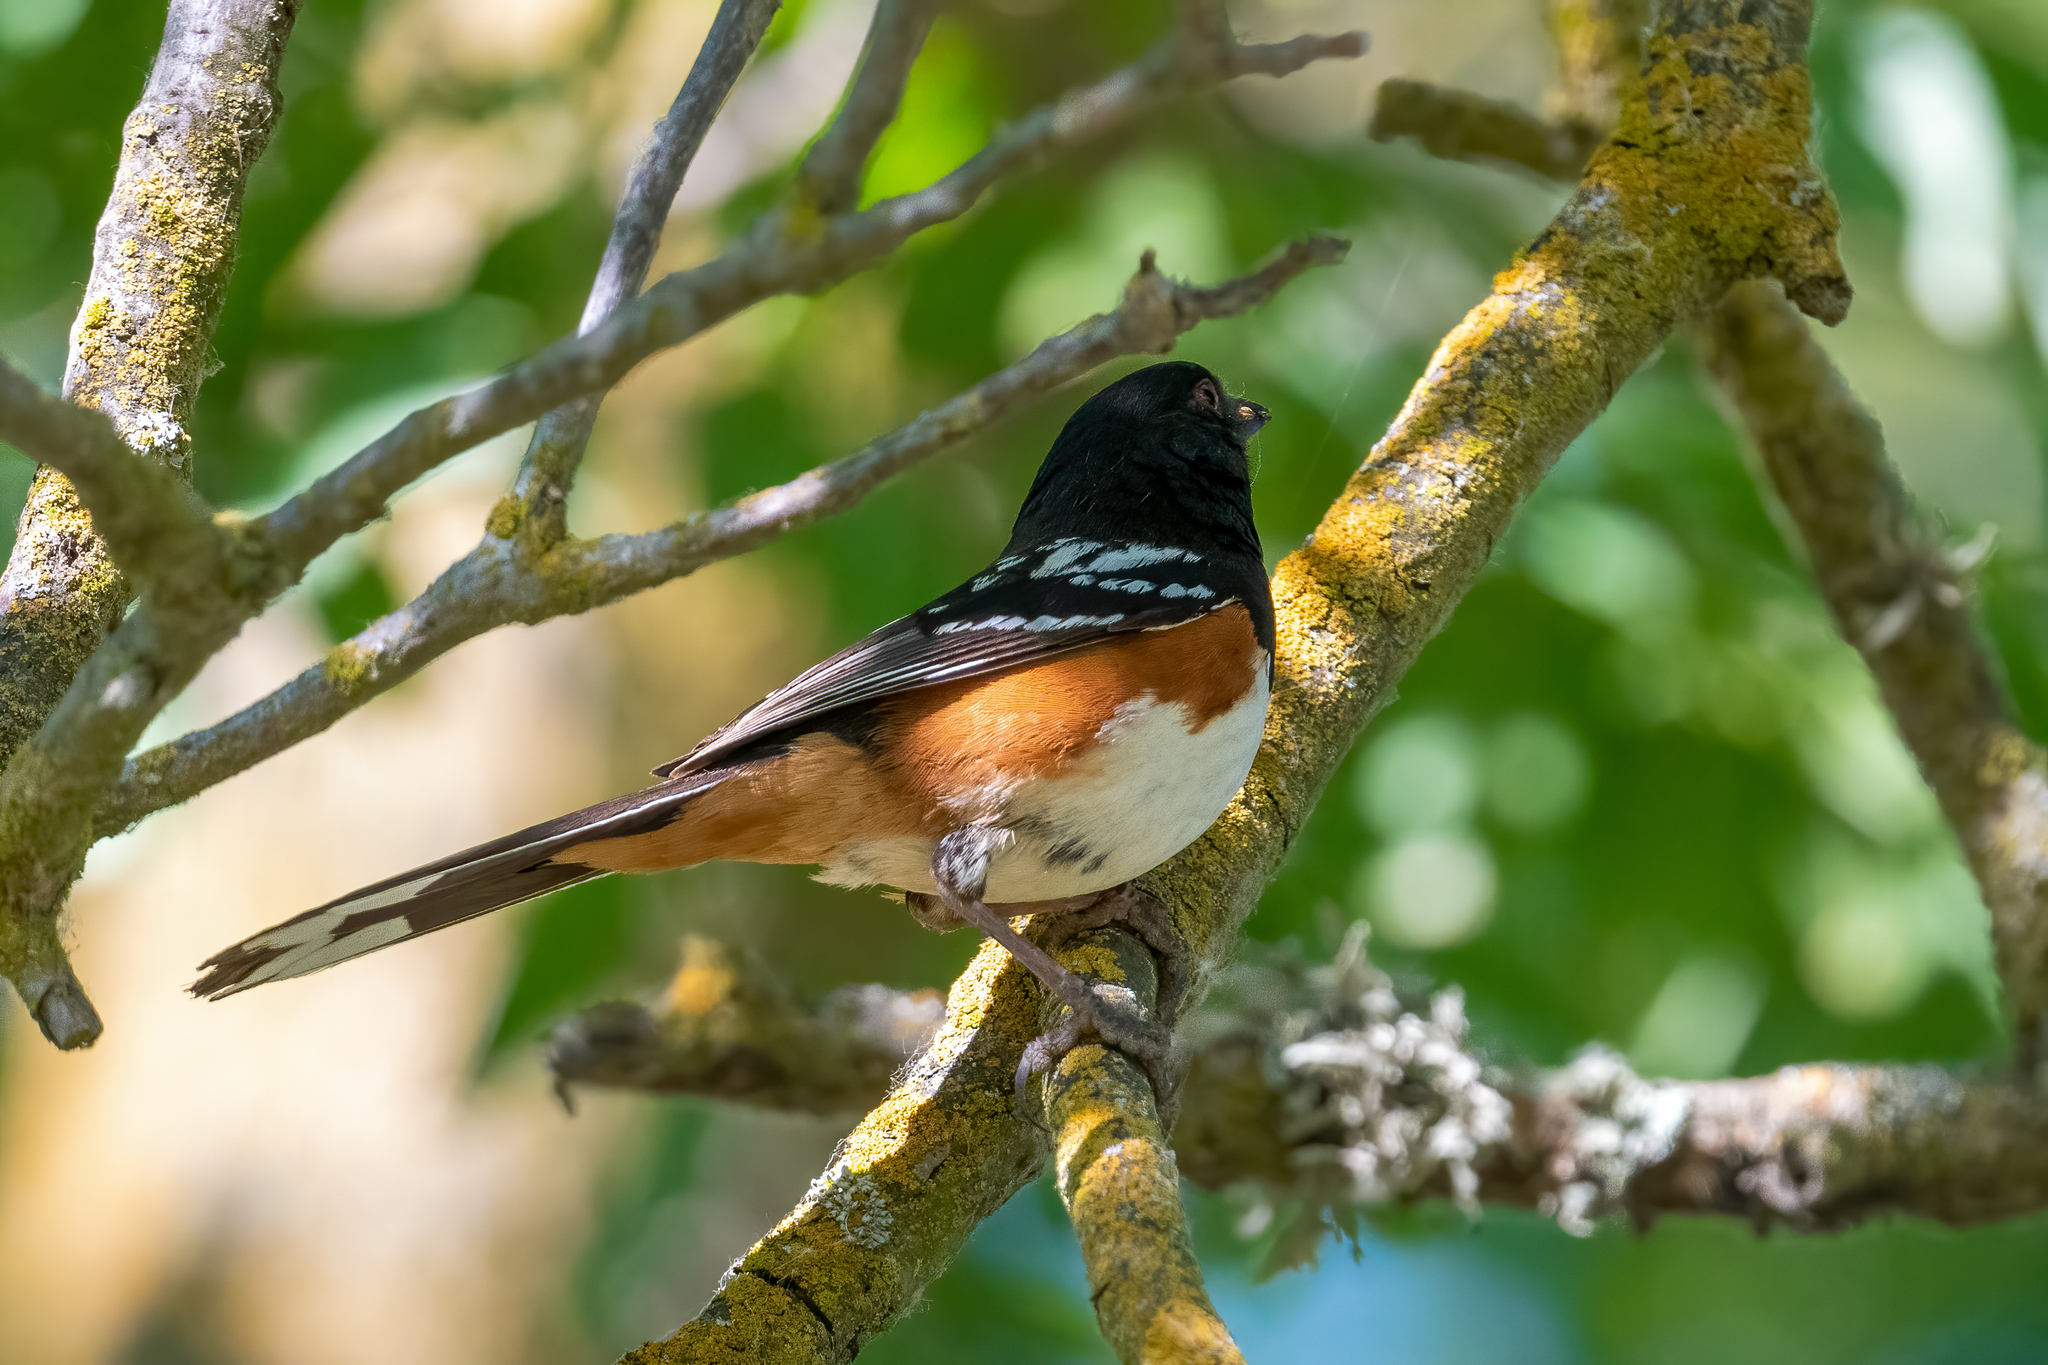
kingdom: Animalia
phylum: Chordata
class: Aves
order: Passeriformes
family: Passerellidae
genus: Pipilo
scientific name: Pipilo maculatus
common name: Spotted towhee
